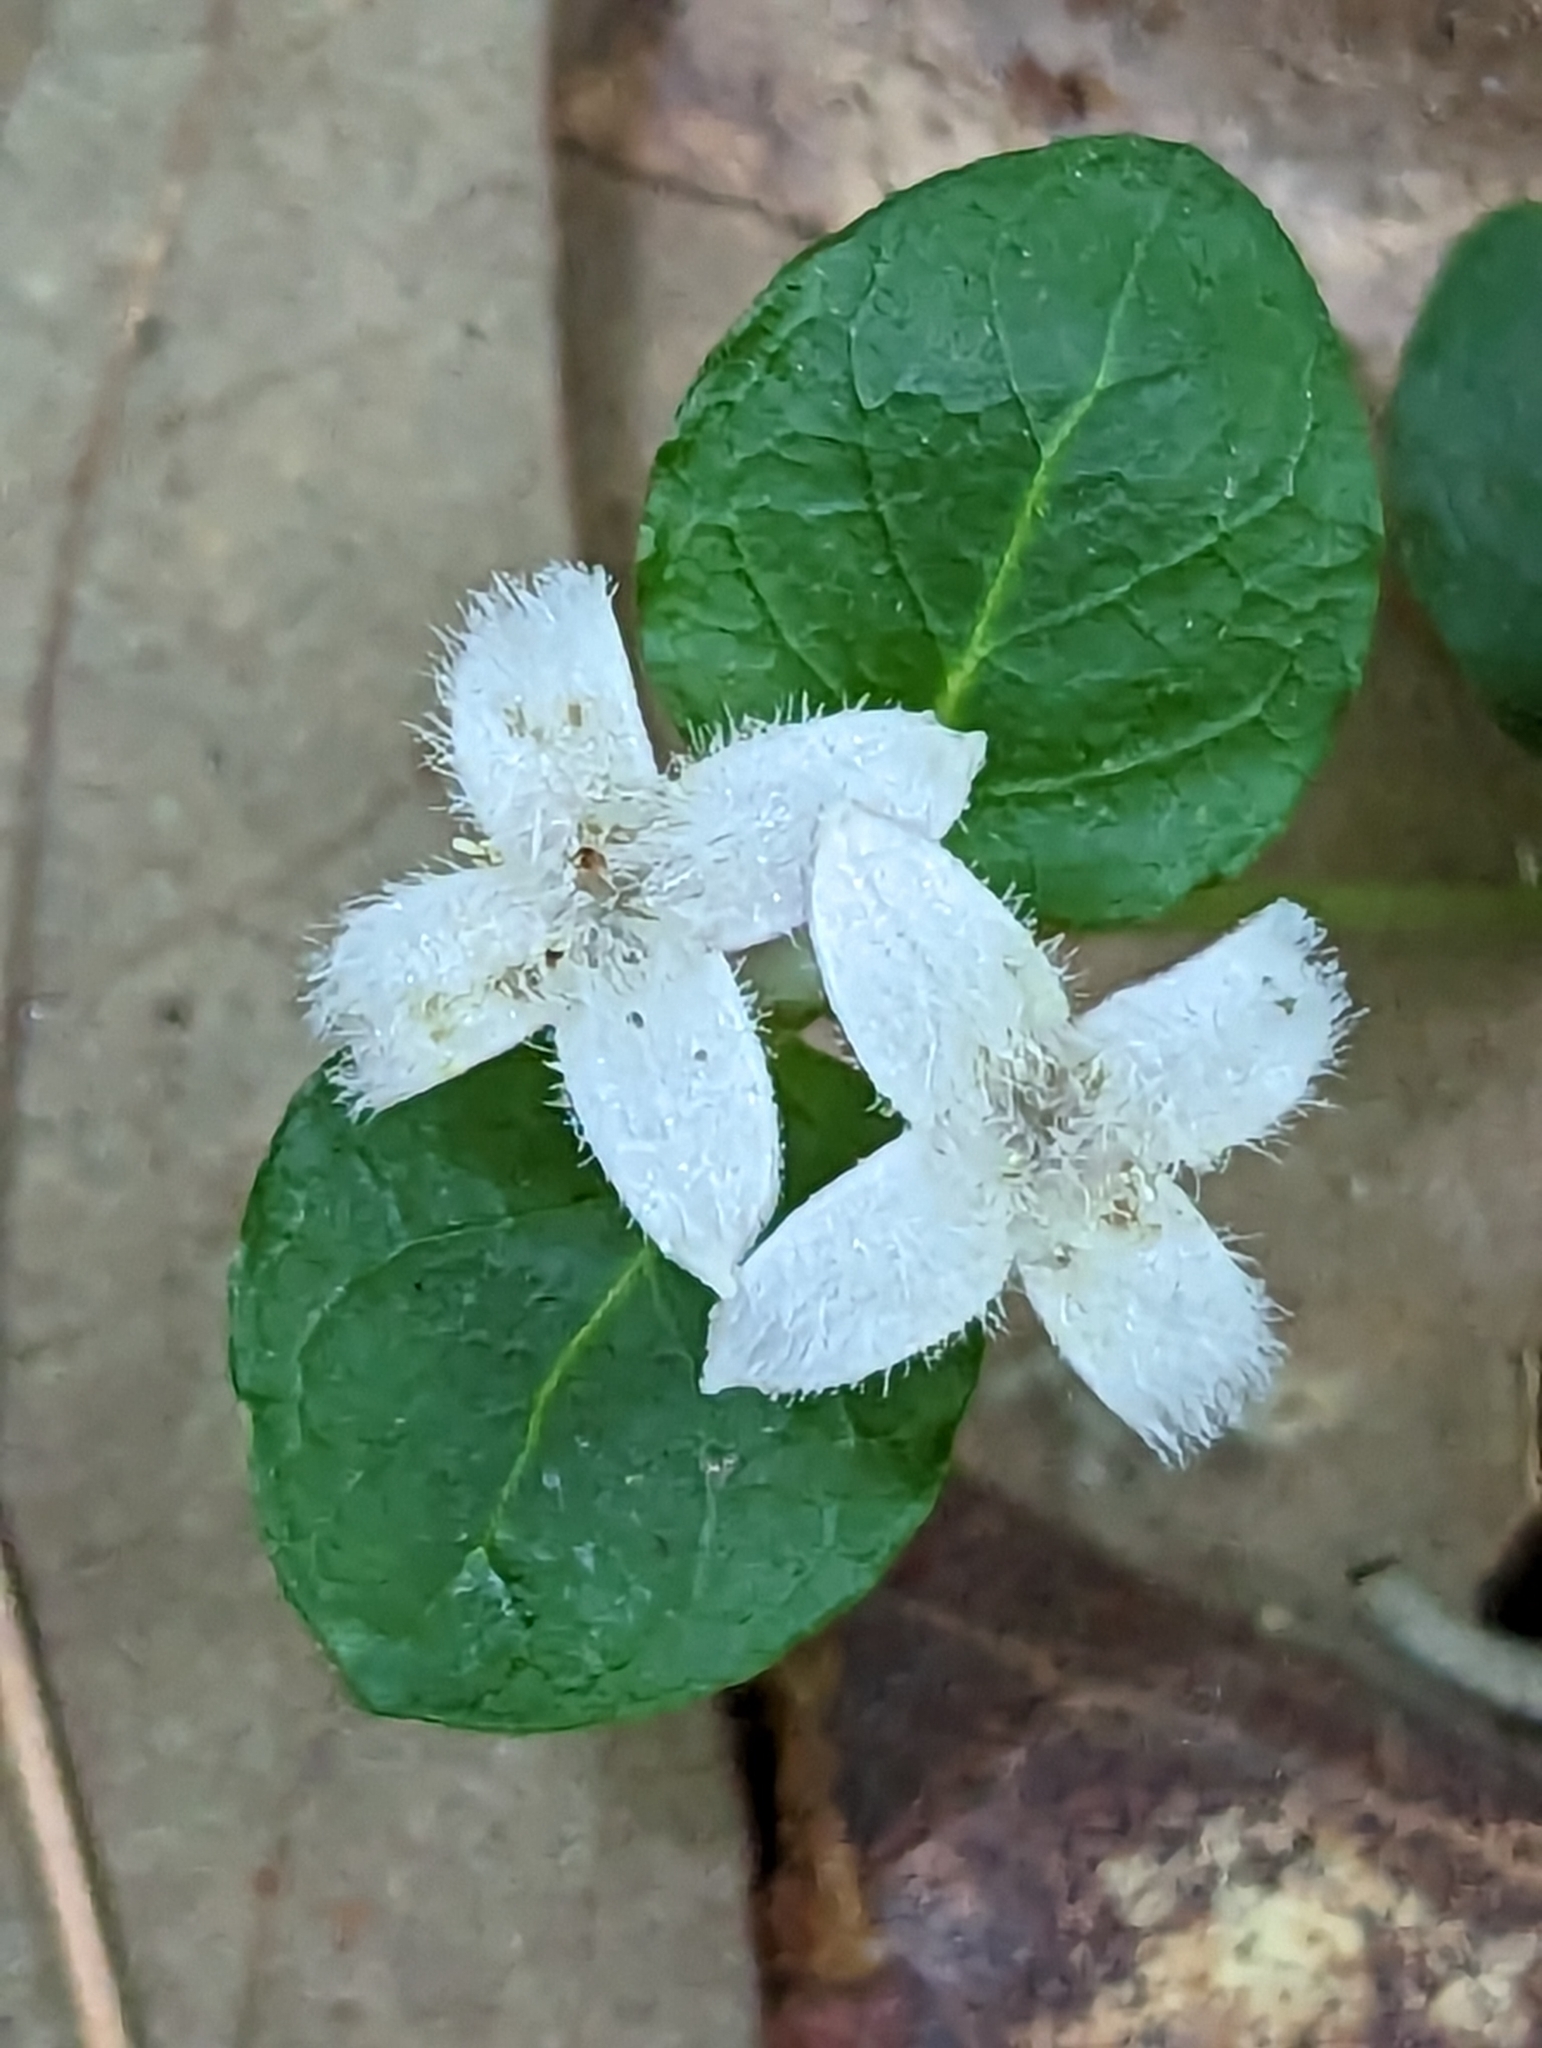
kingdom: Plantae
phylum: Tracheophyta
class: Magnoliopsida
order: Gentianales
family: Rubiaceae
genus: Mitchella
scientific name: Mitchella repens
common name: Partridge-berry
